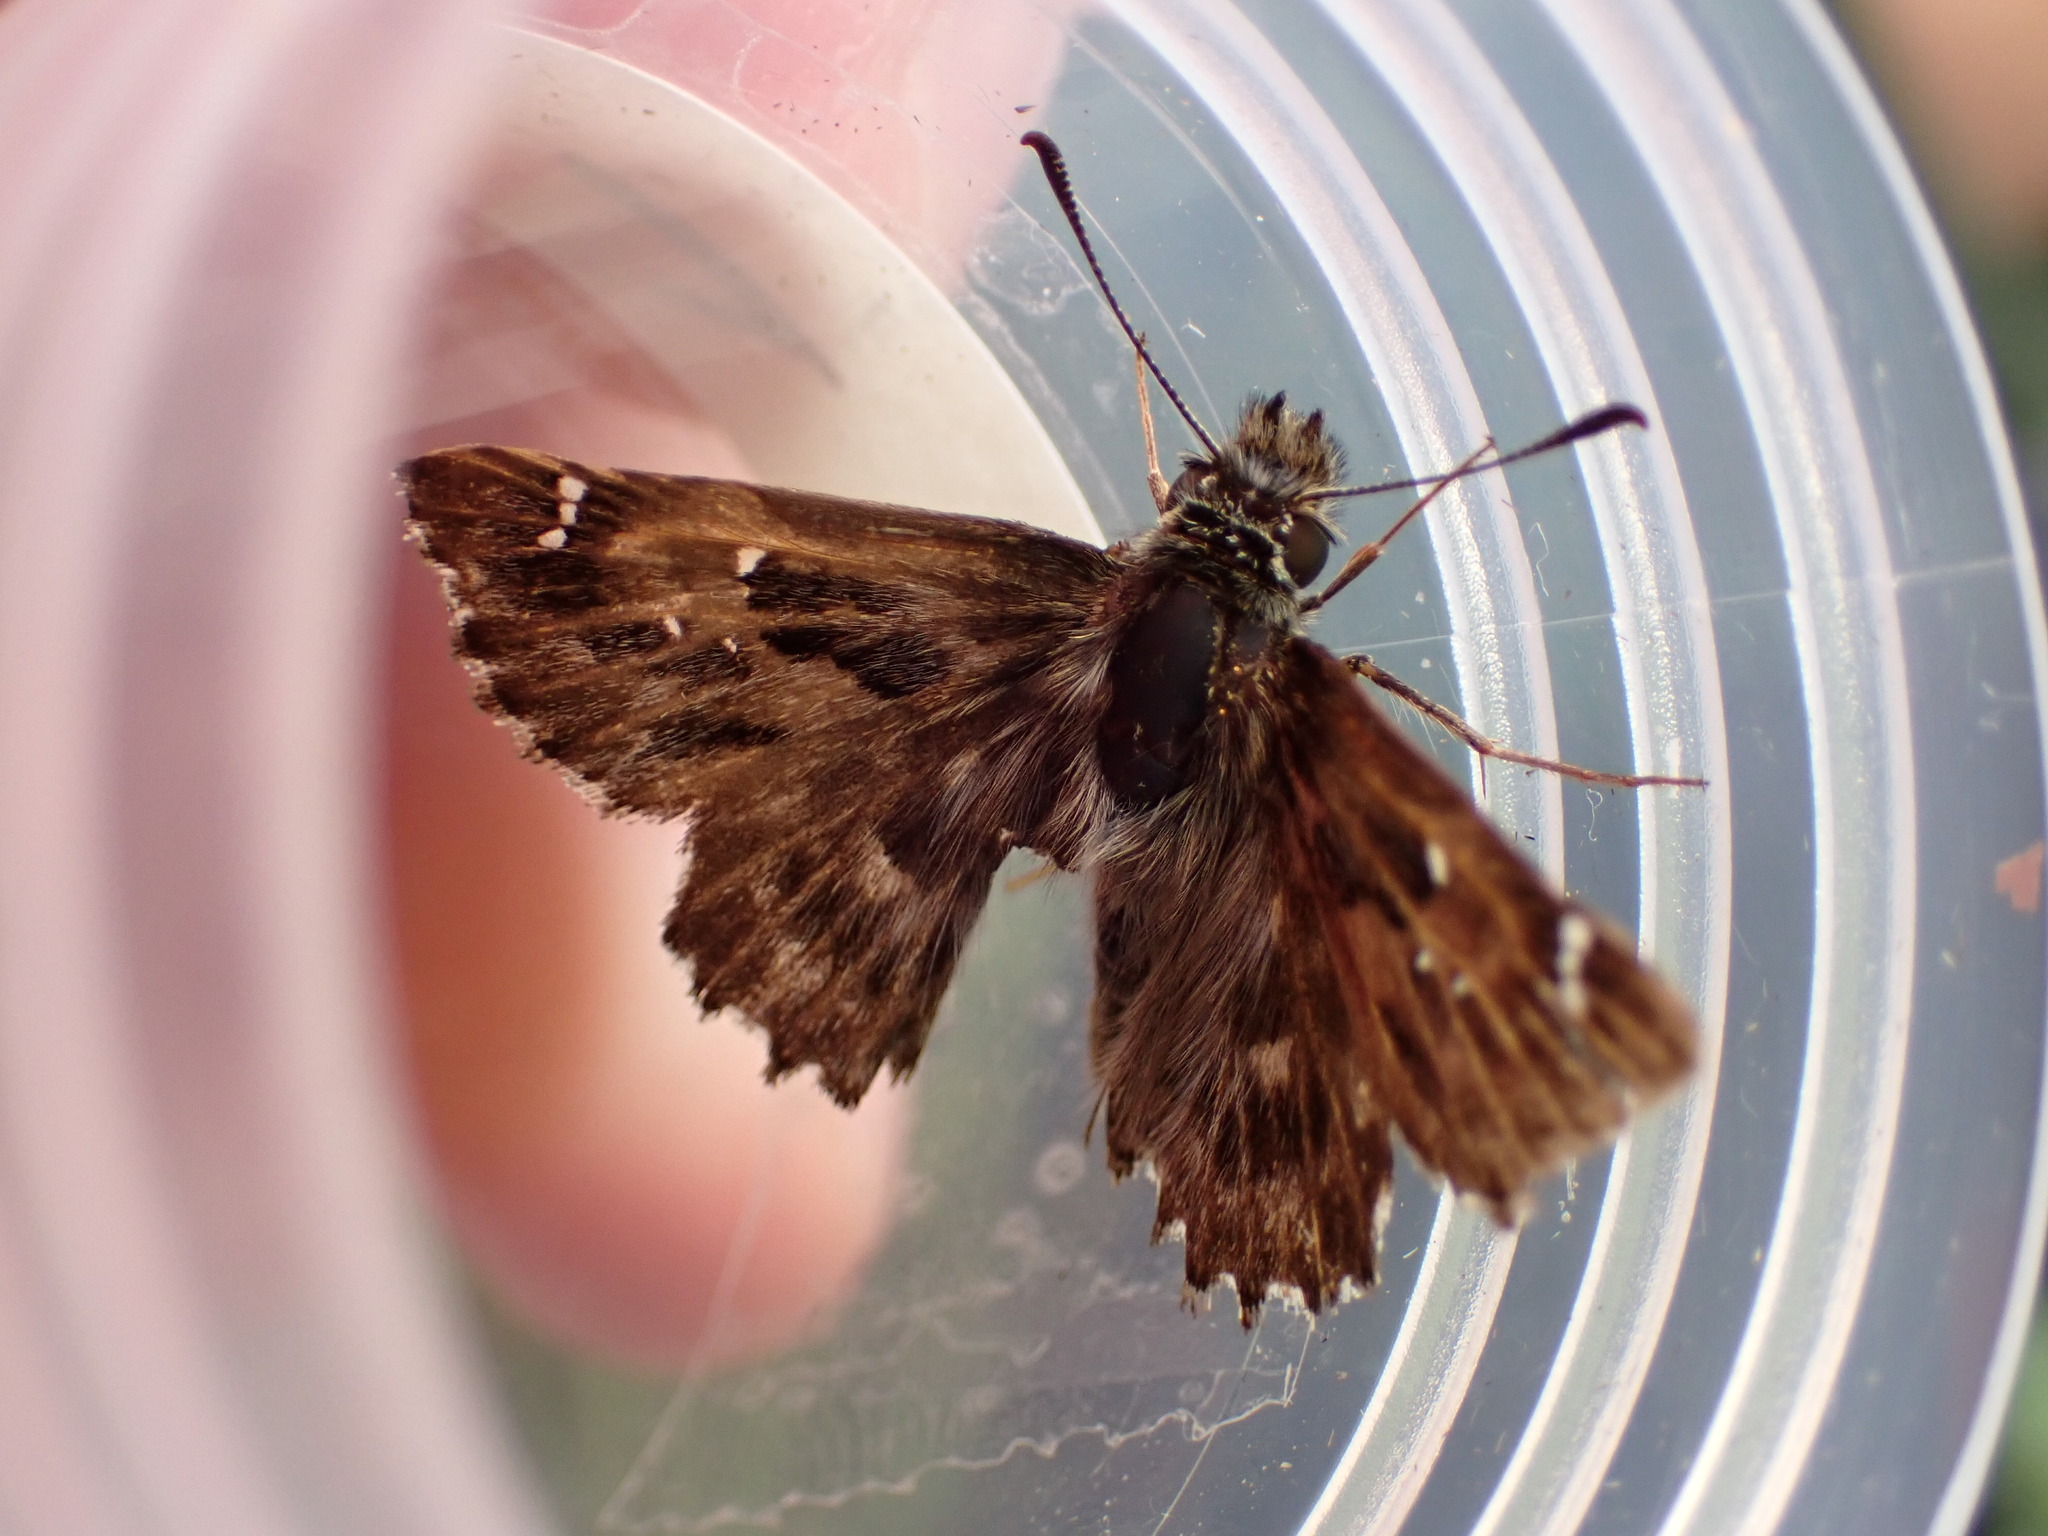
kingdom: Animalia
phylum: Arthropoda
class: Insecta
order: Lepidoptera
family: Hesperiidae
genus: Carcharodus
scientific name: Carcharodus alceae
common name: Mallow skipper
